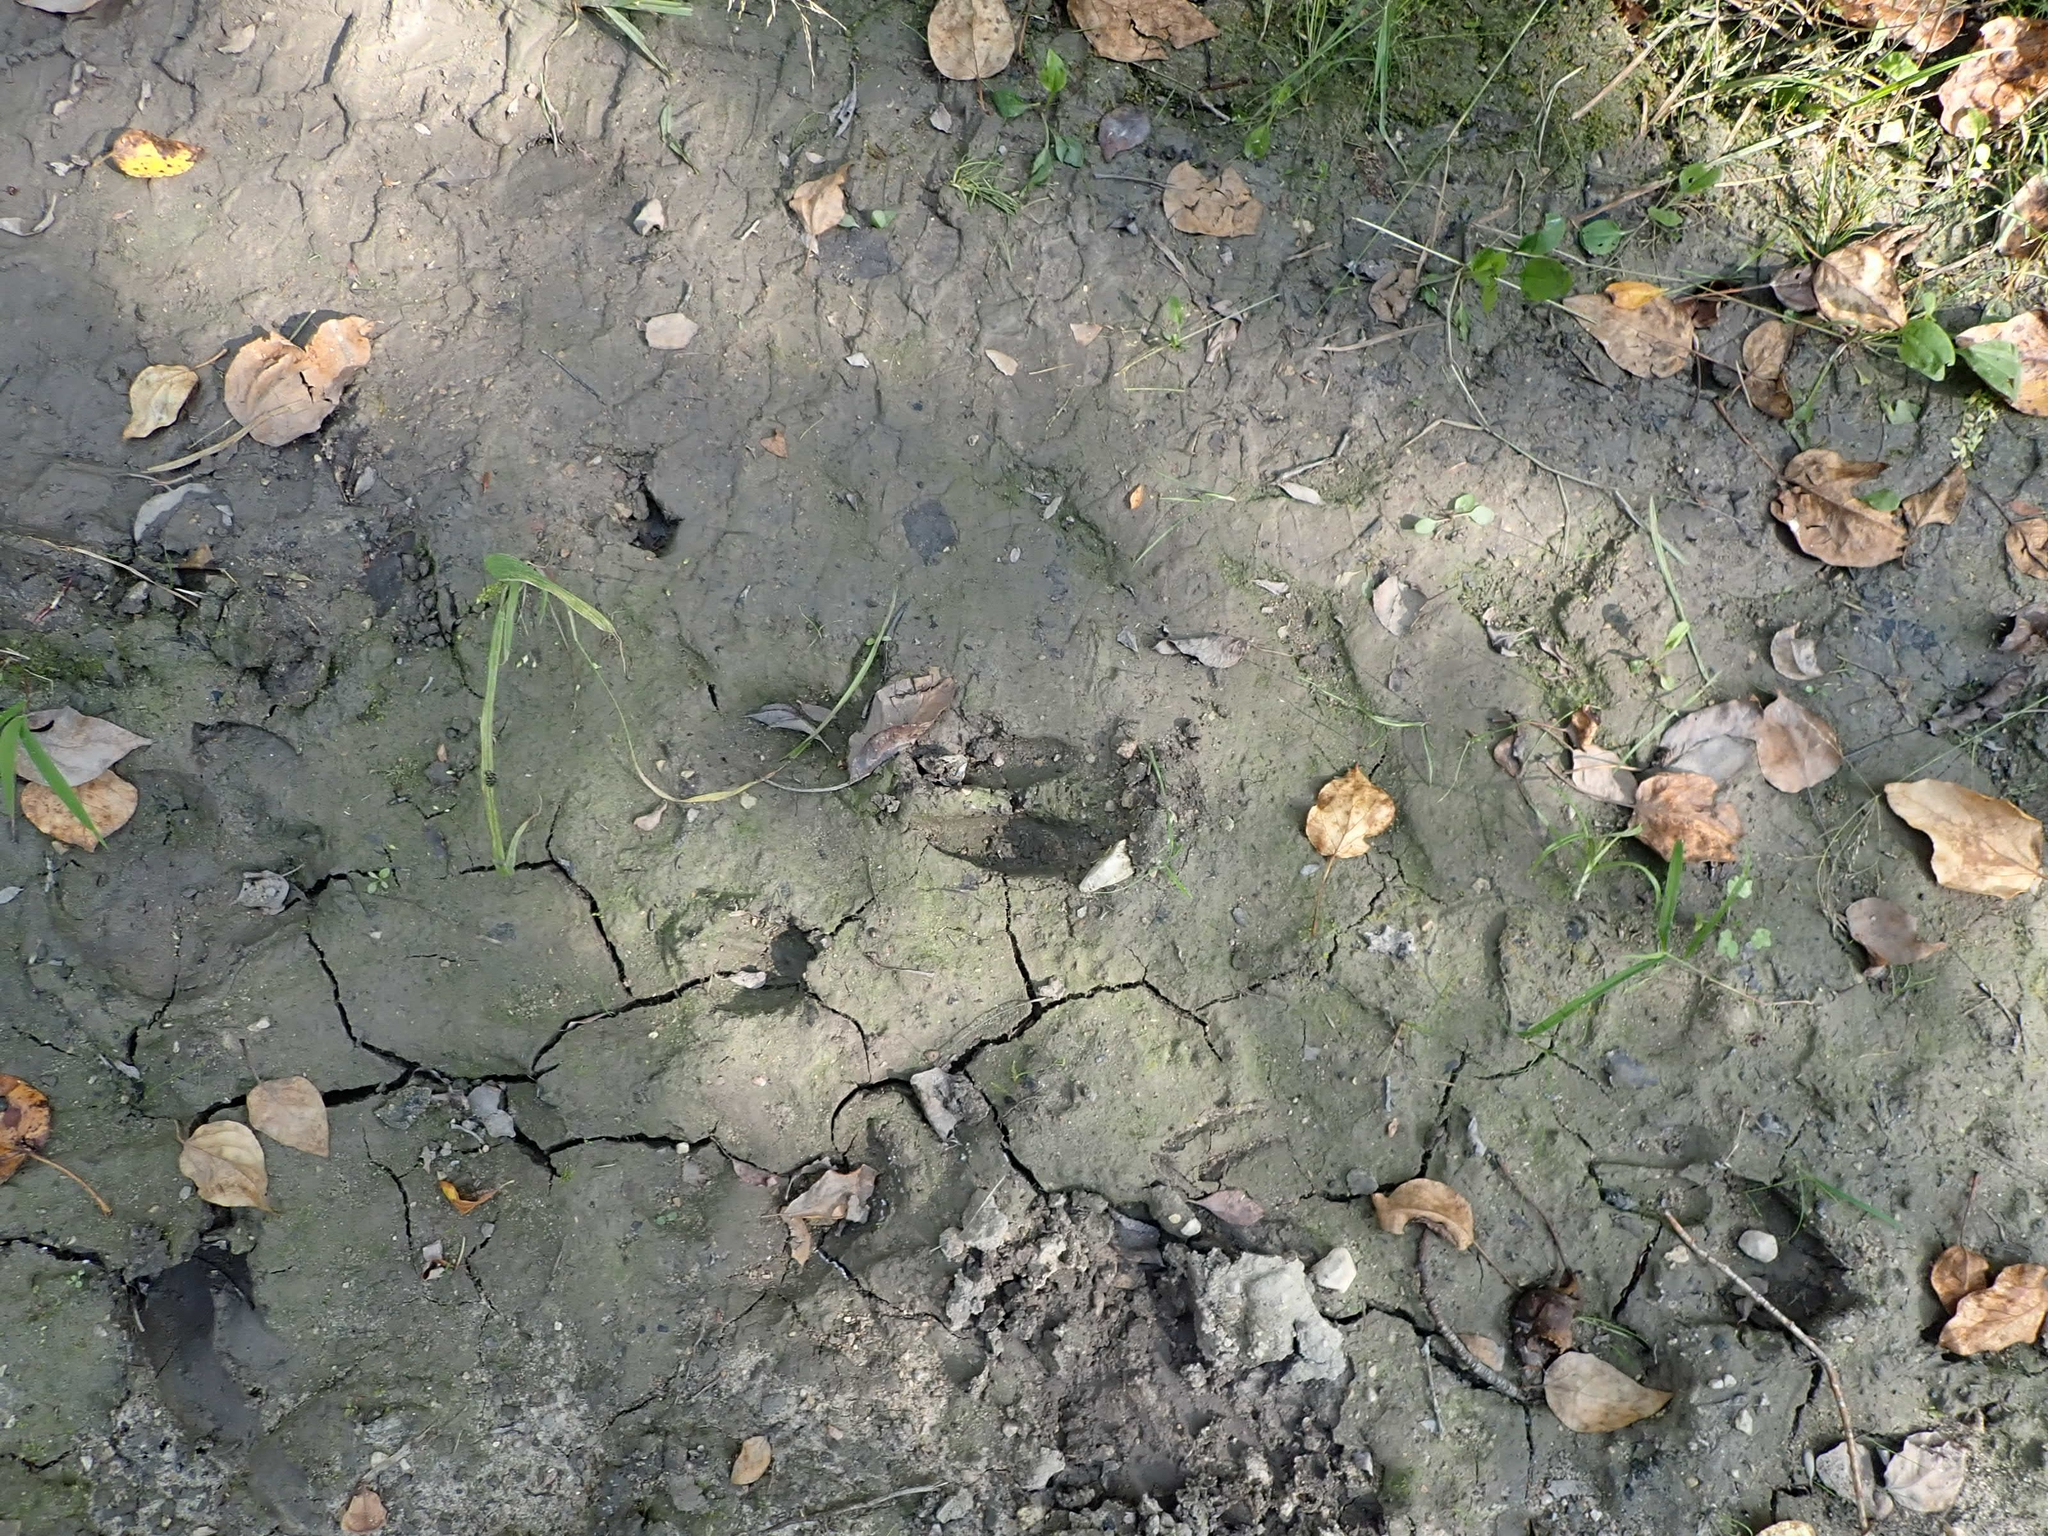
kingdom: Animalia
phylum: Chordata
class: Mammalia
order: Artiodactyla
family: Cervidae
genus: Odocoileus
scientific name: Odocoileus virginianus
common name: White-tailed deer
